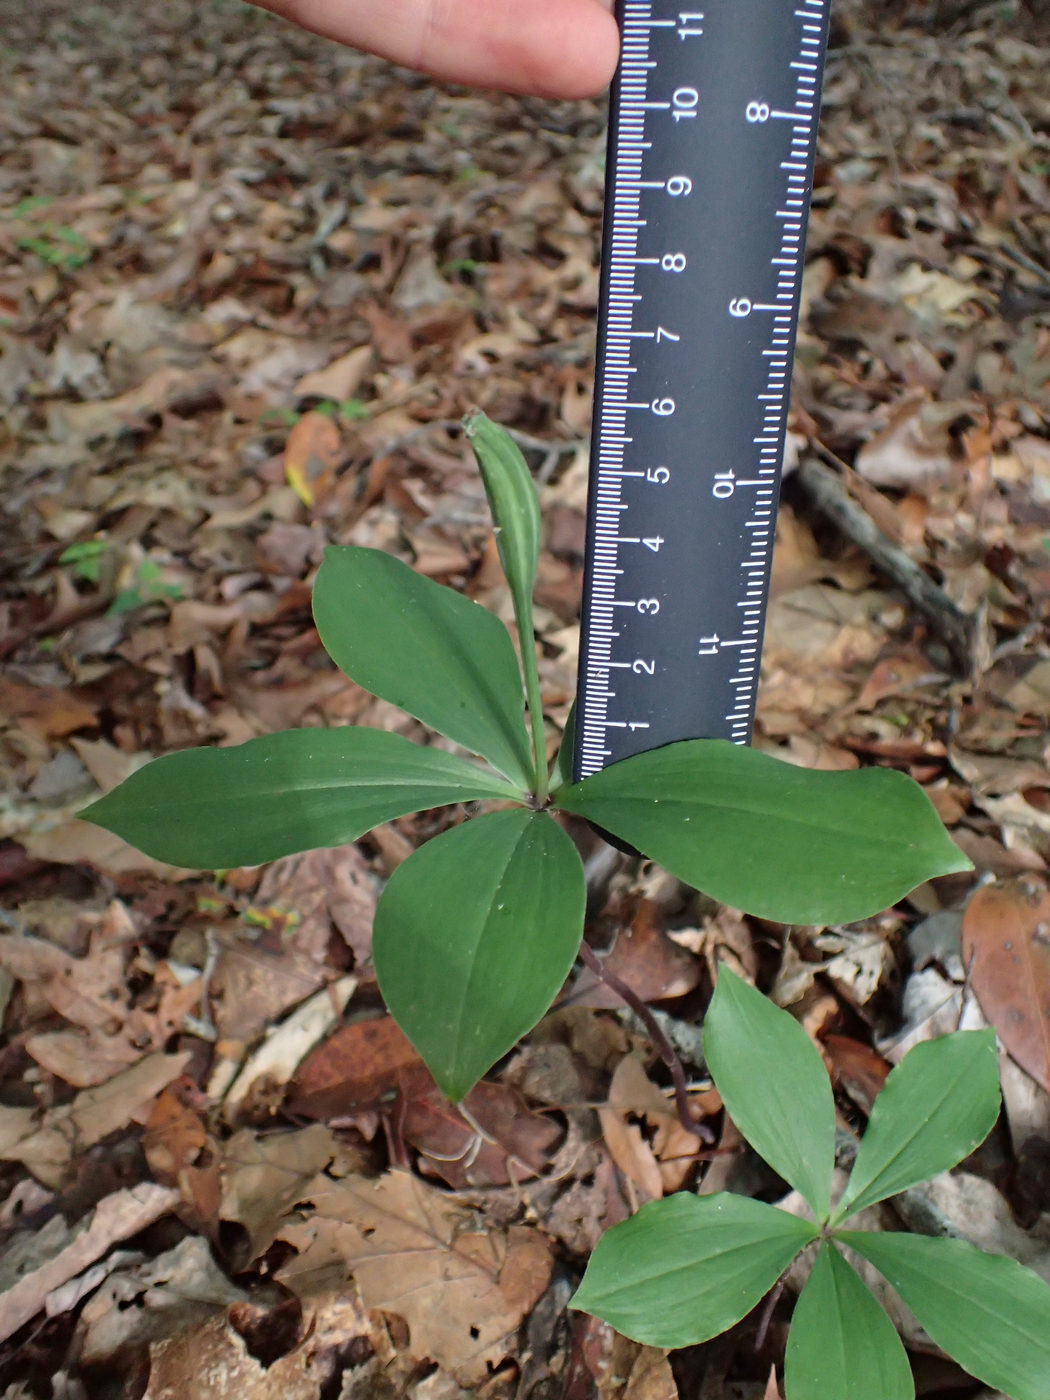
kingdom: Plantae
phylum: Tracheophyta
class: Liliopsida
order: Asparagales
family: Orchidaceae
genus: Isotria
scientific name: Isotria verticillata
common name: Large whorled pogonia
